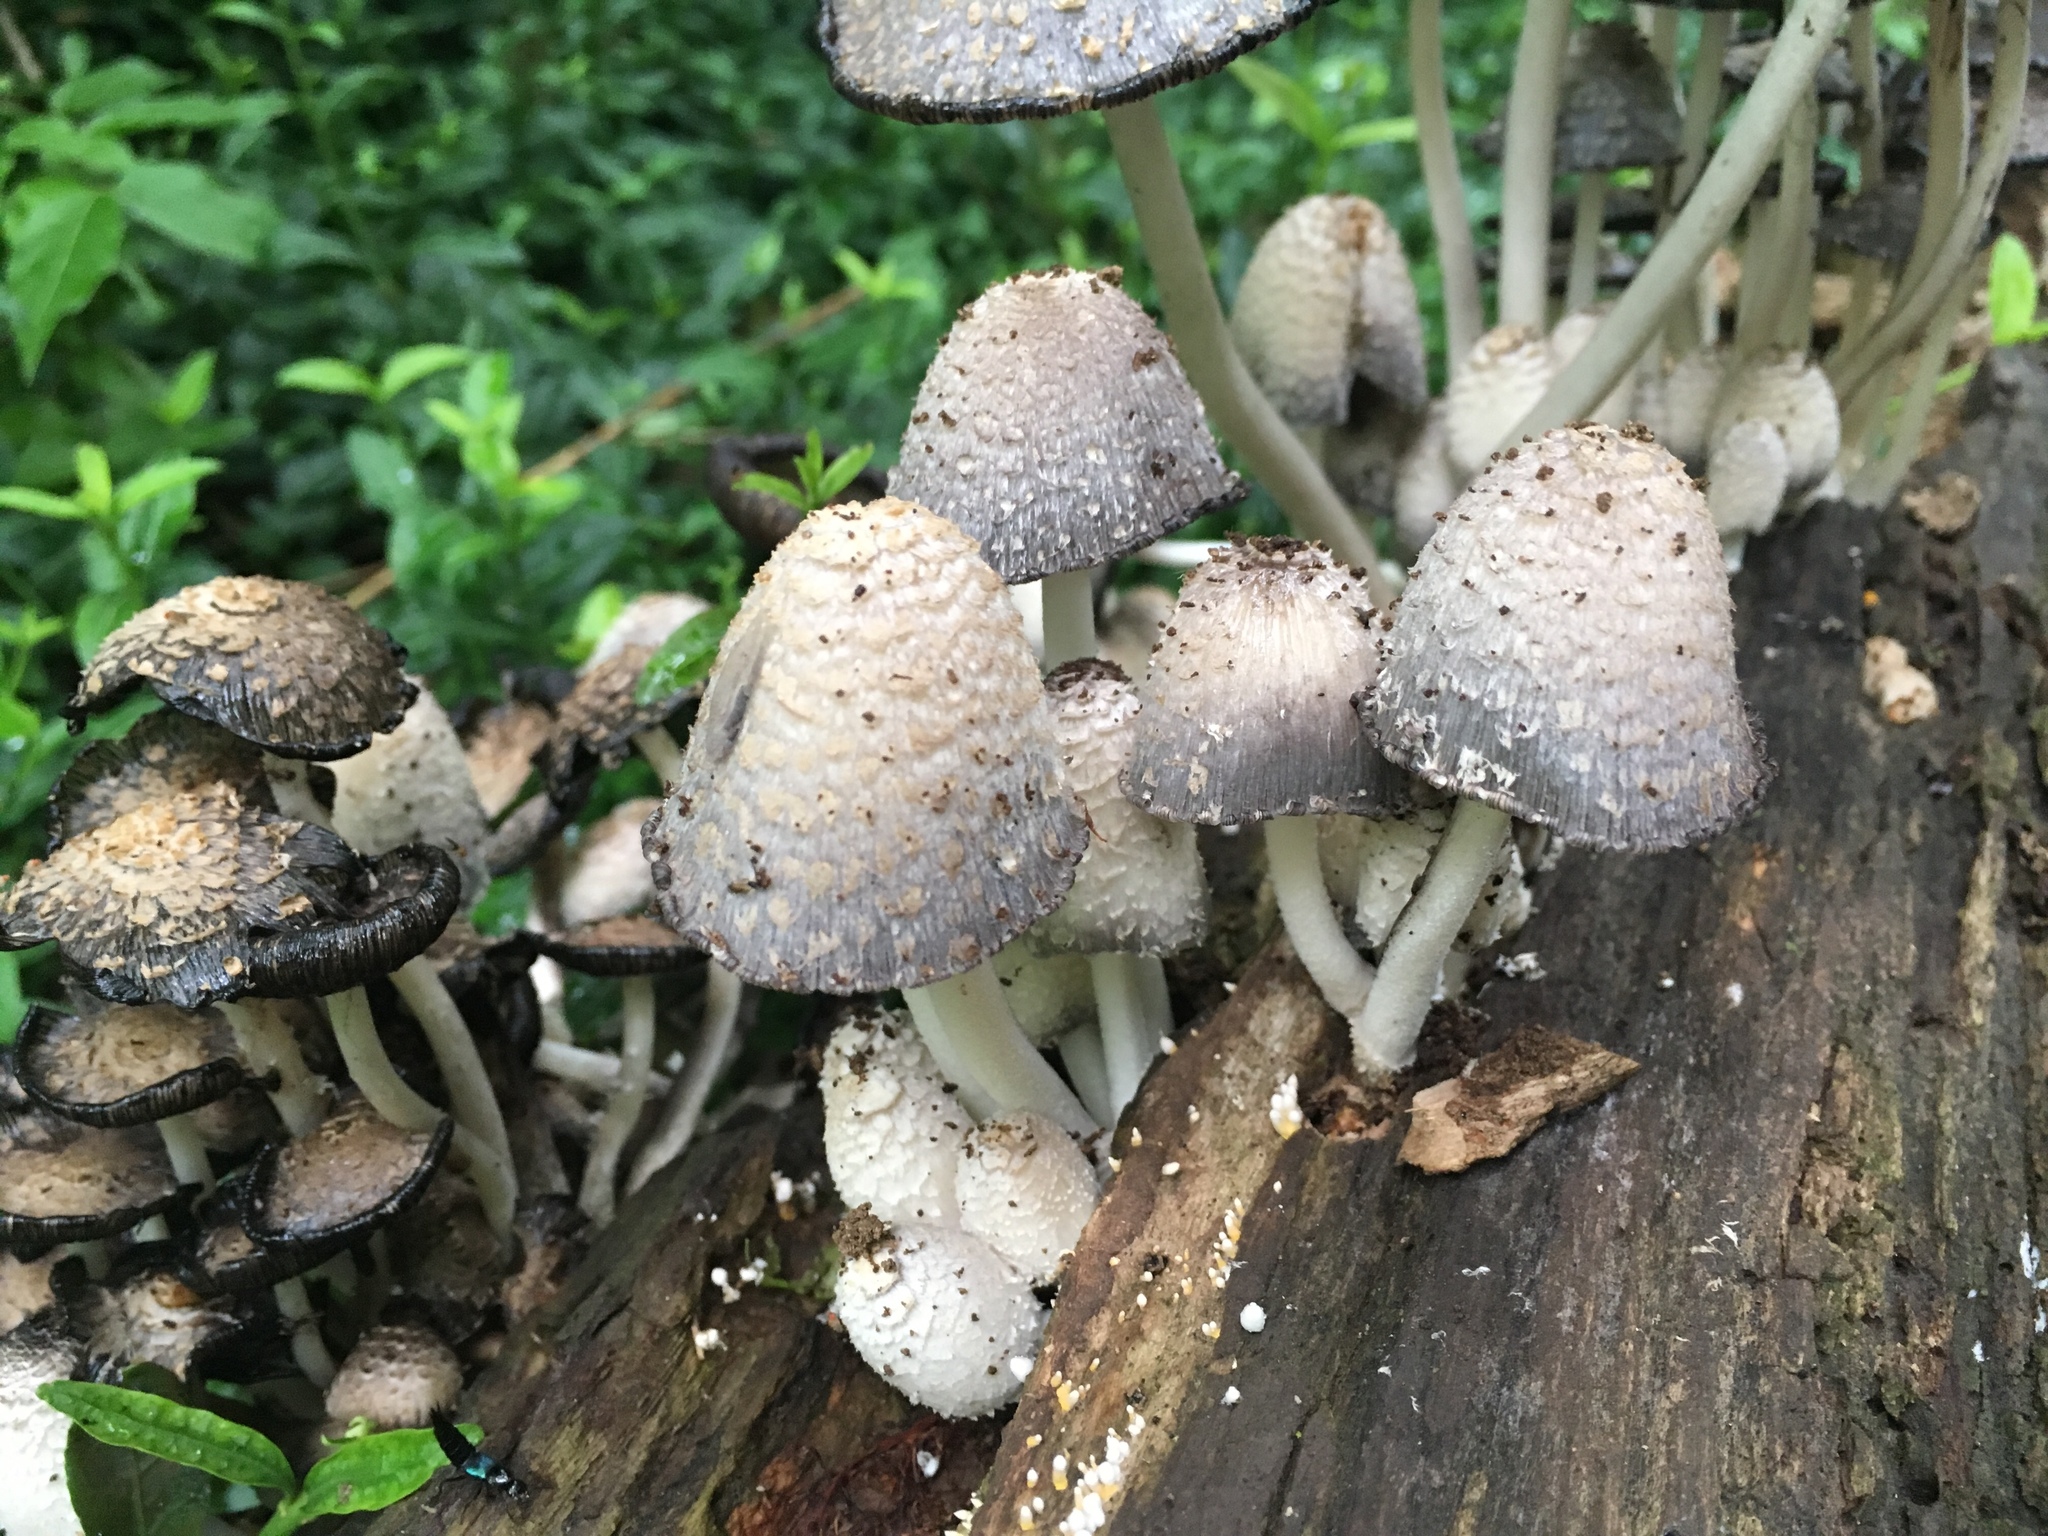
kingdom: Fungi
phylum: Basidiomycota
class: Agaricomycetes
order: Agaricales
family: Psathyrellaceae
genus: Coprinopsis
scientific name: Coprinopsis variegata
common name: Scaly ink cap
